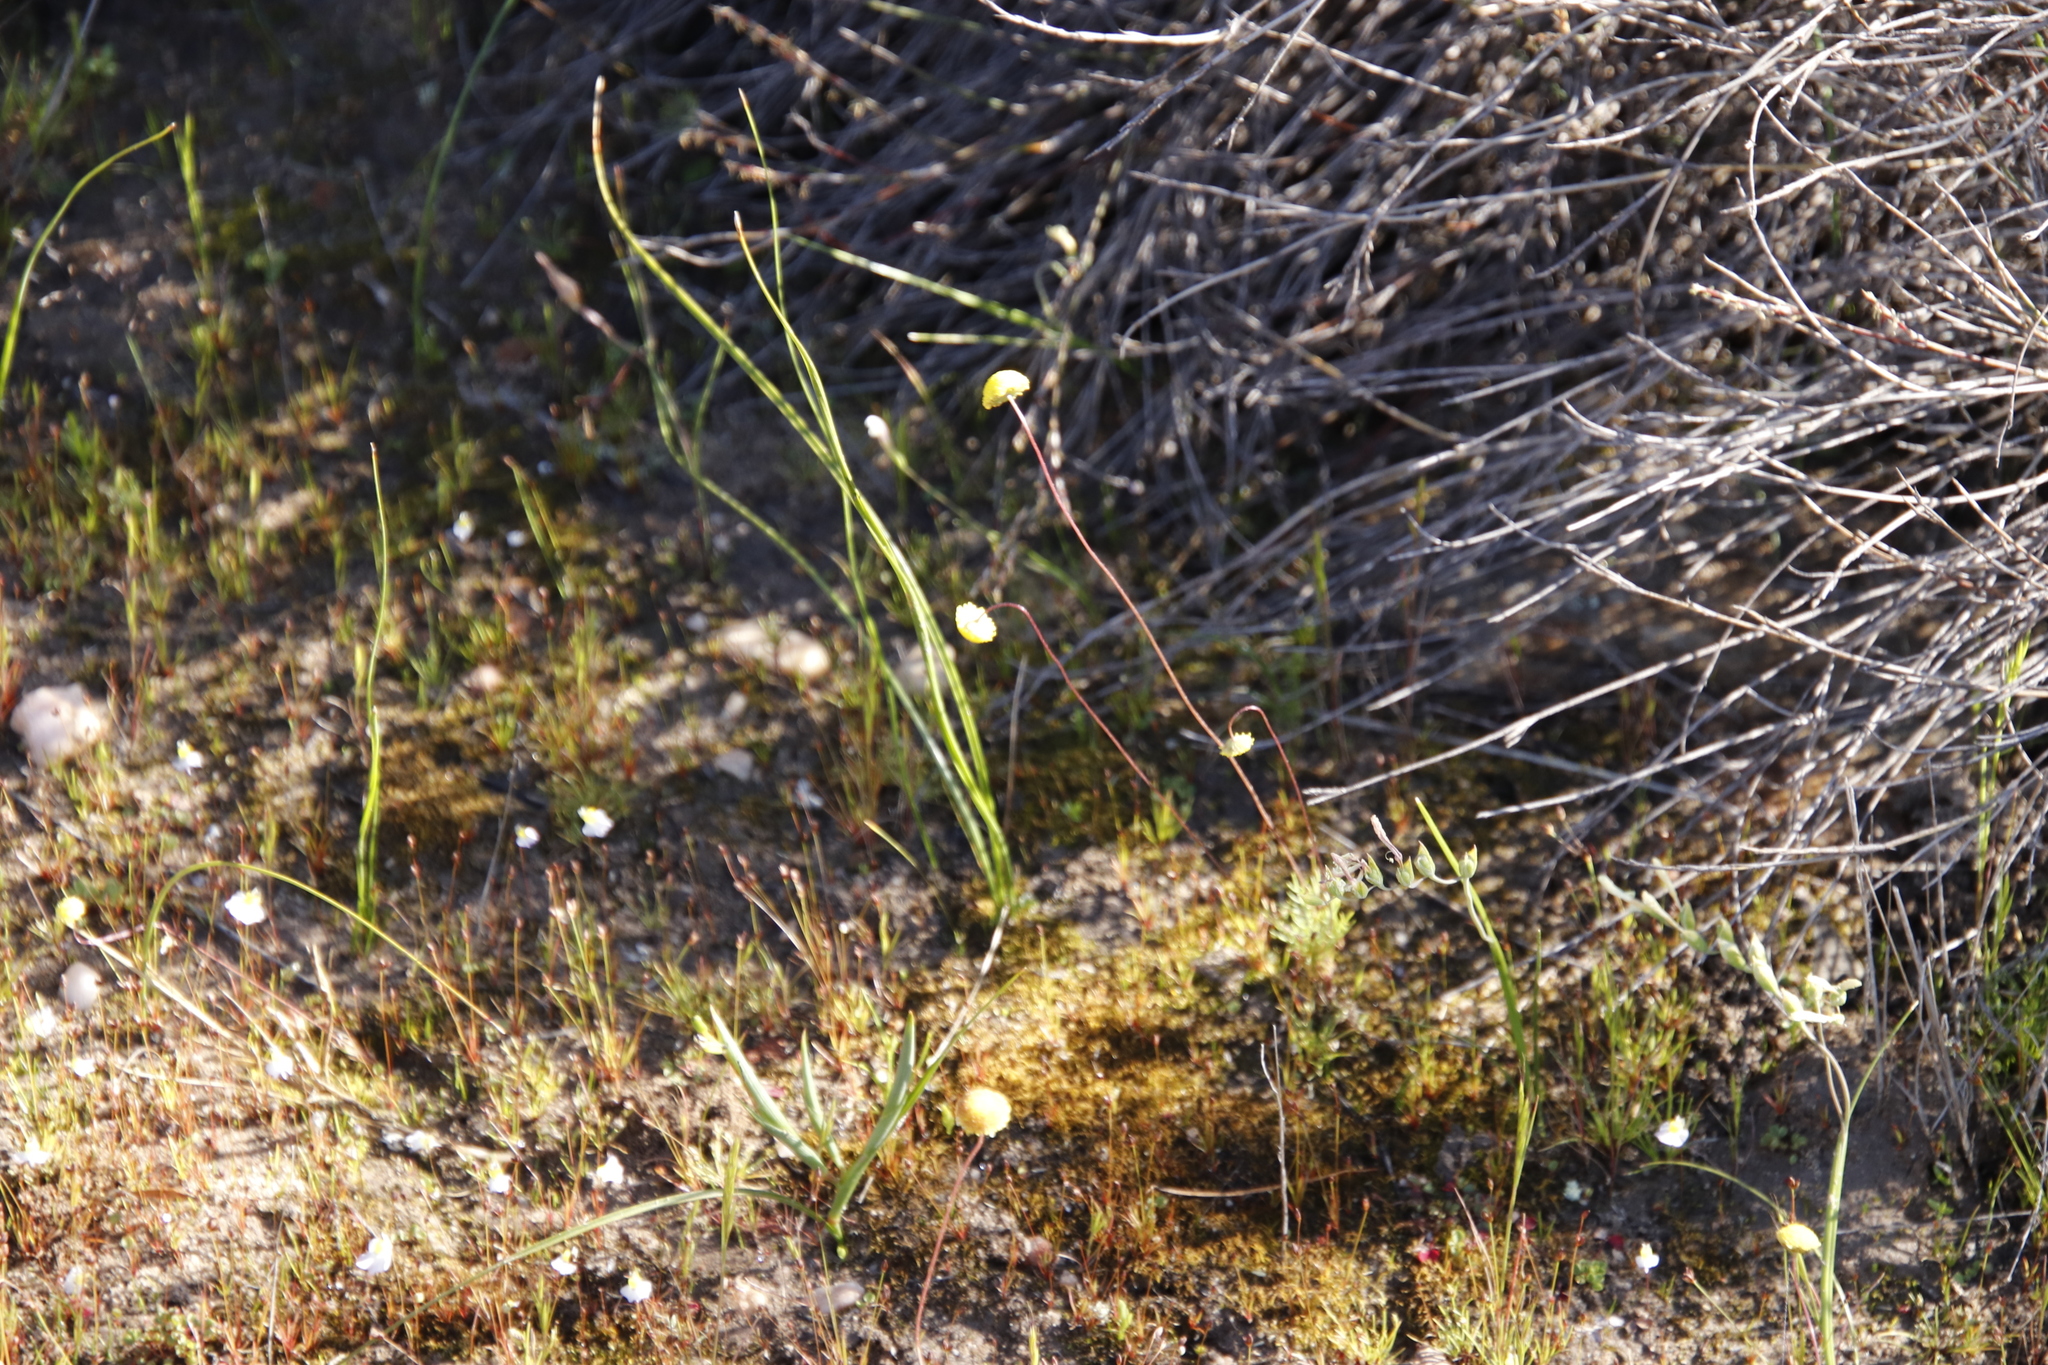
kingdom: Plantae
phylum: Tracheophyta
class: Magnoliopsida
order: Lamiales
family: Lentibulariaceae
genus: Utricularia
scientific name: Utricularia bisquamata
